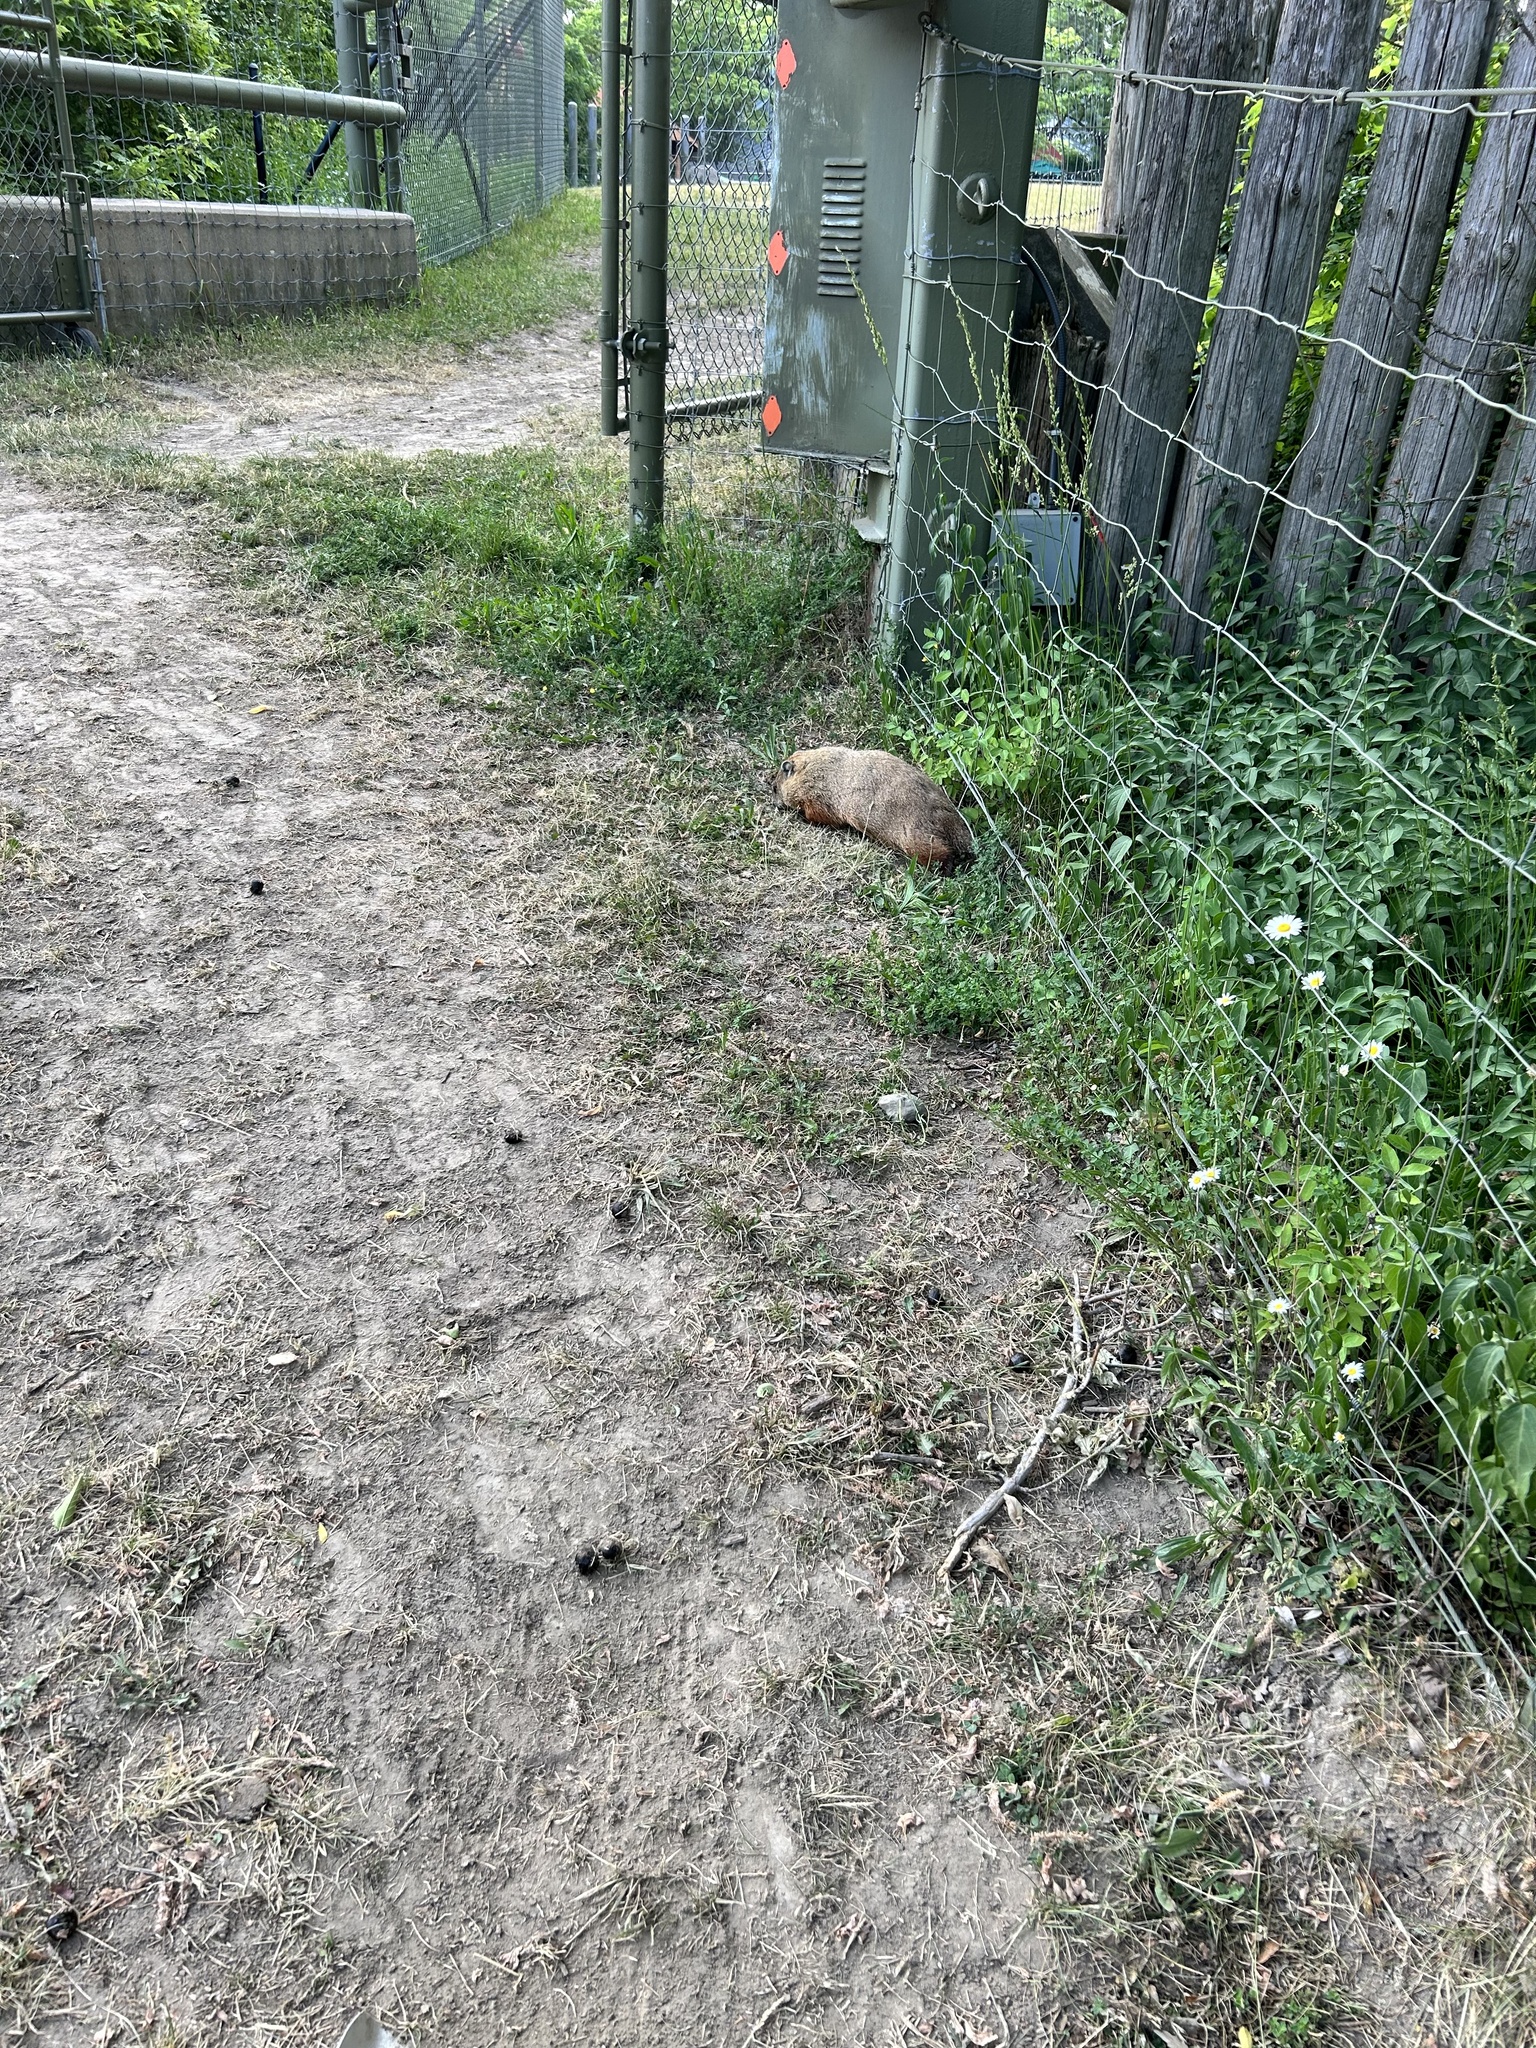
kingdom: Animalia
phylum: Chordata
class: Mammalia
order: Rodentia
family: Sciuridae
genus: Marmota
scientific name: Marmota monax
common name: Groundhog
